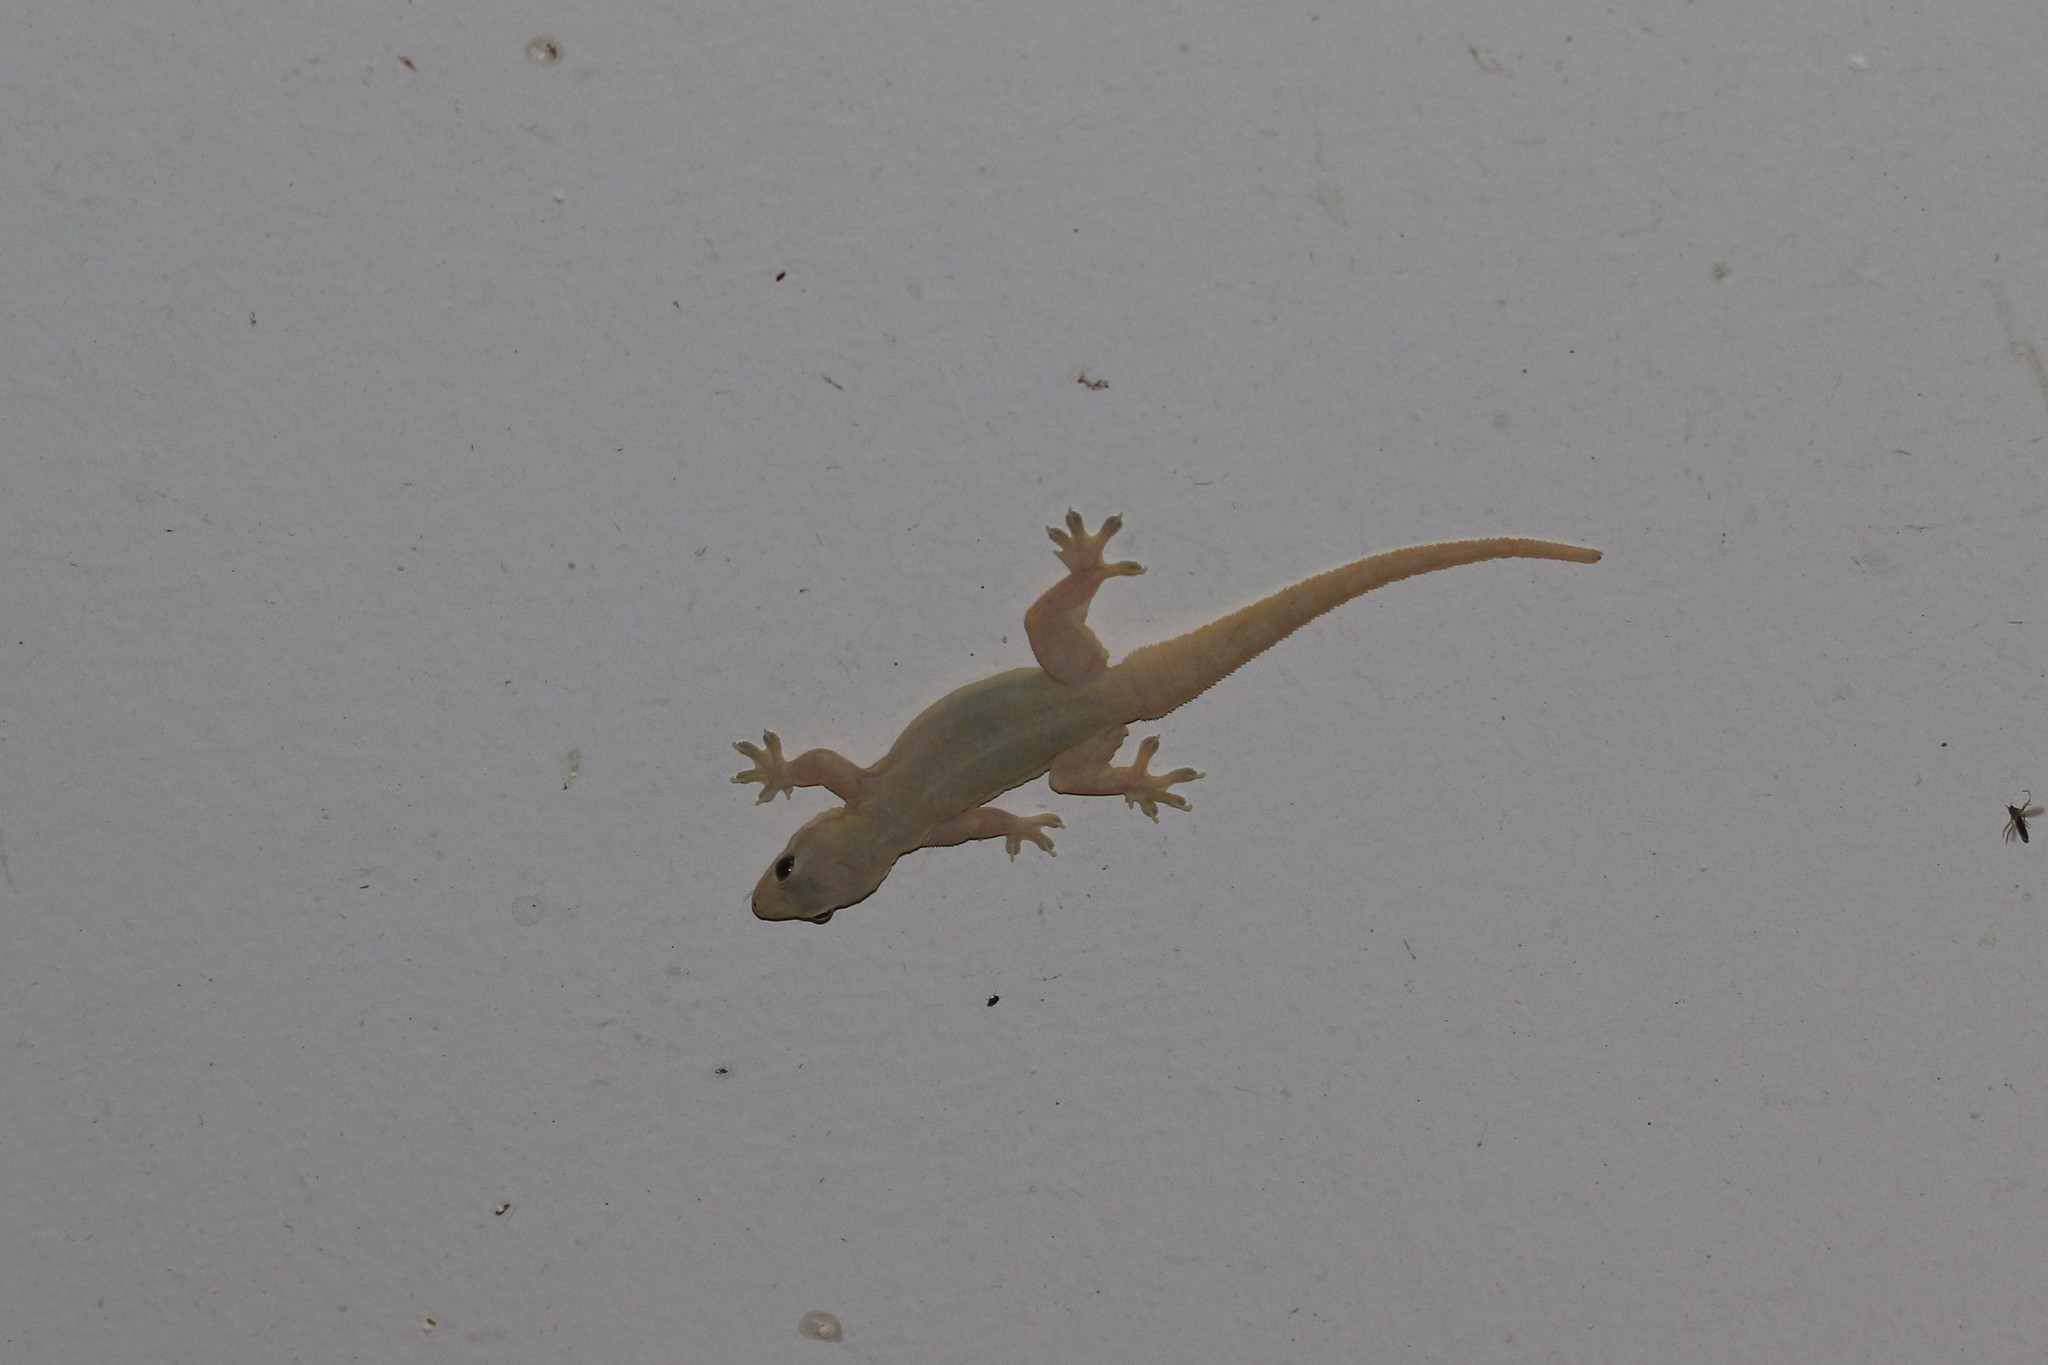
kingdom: Animalia
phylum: Chordata
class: Squamata
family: Gekkonidae
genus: Hemidactylus
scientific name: Hemidactylus platyurus
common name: Flat-tailed house gecko
